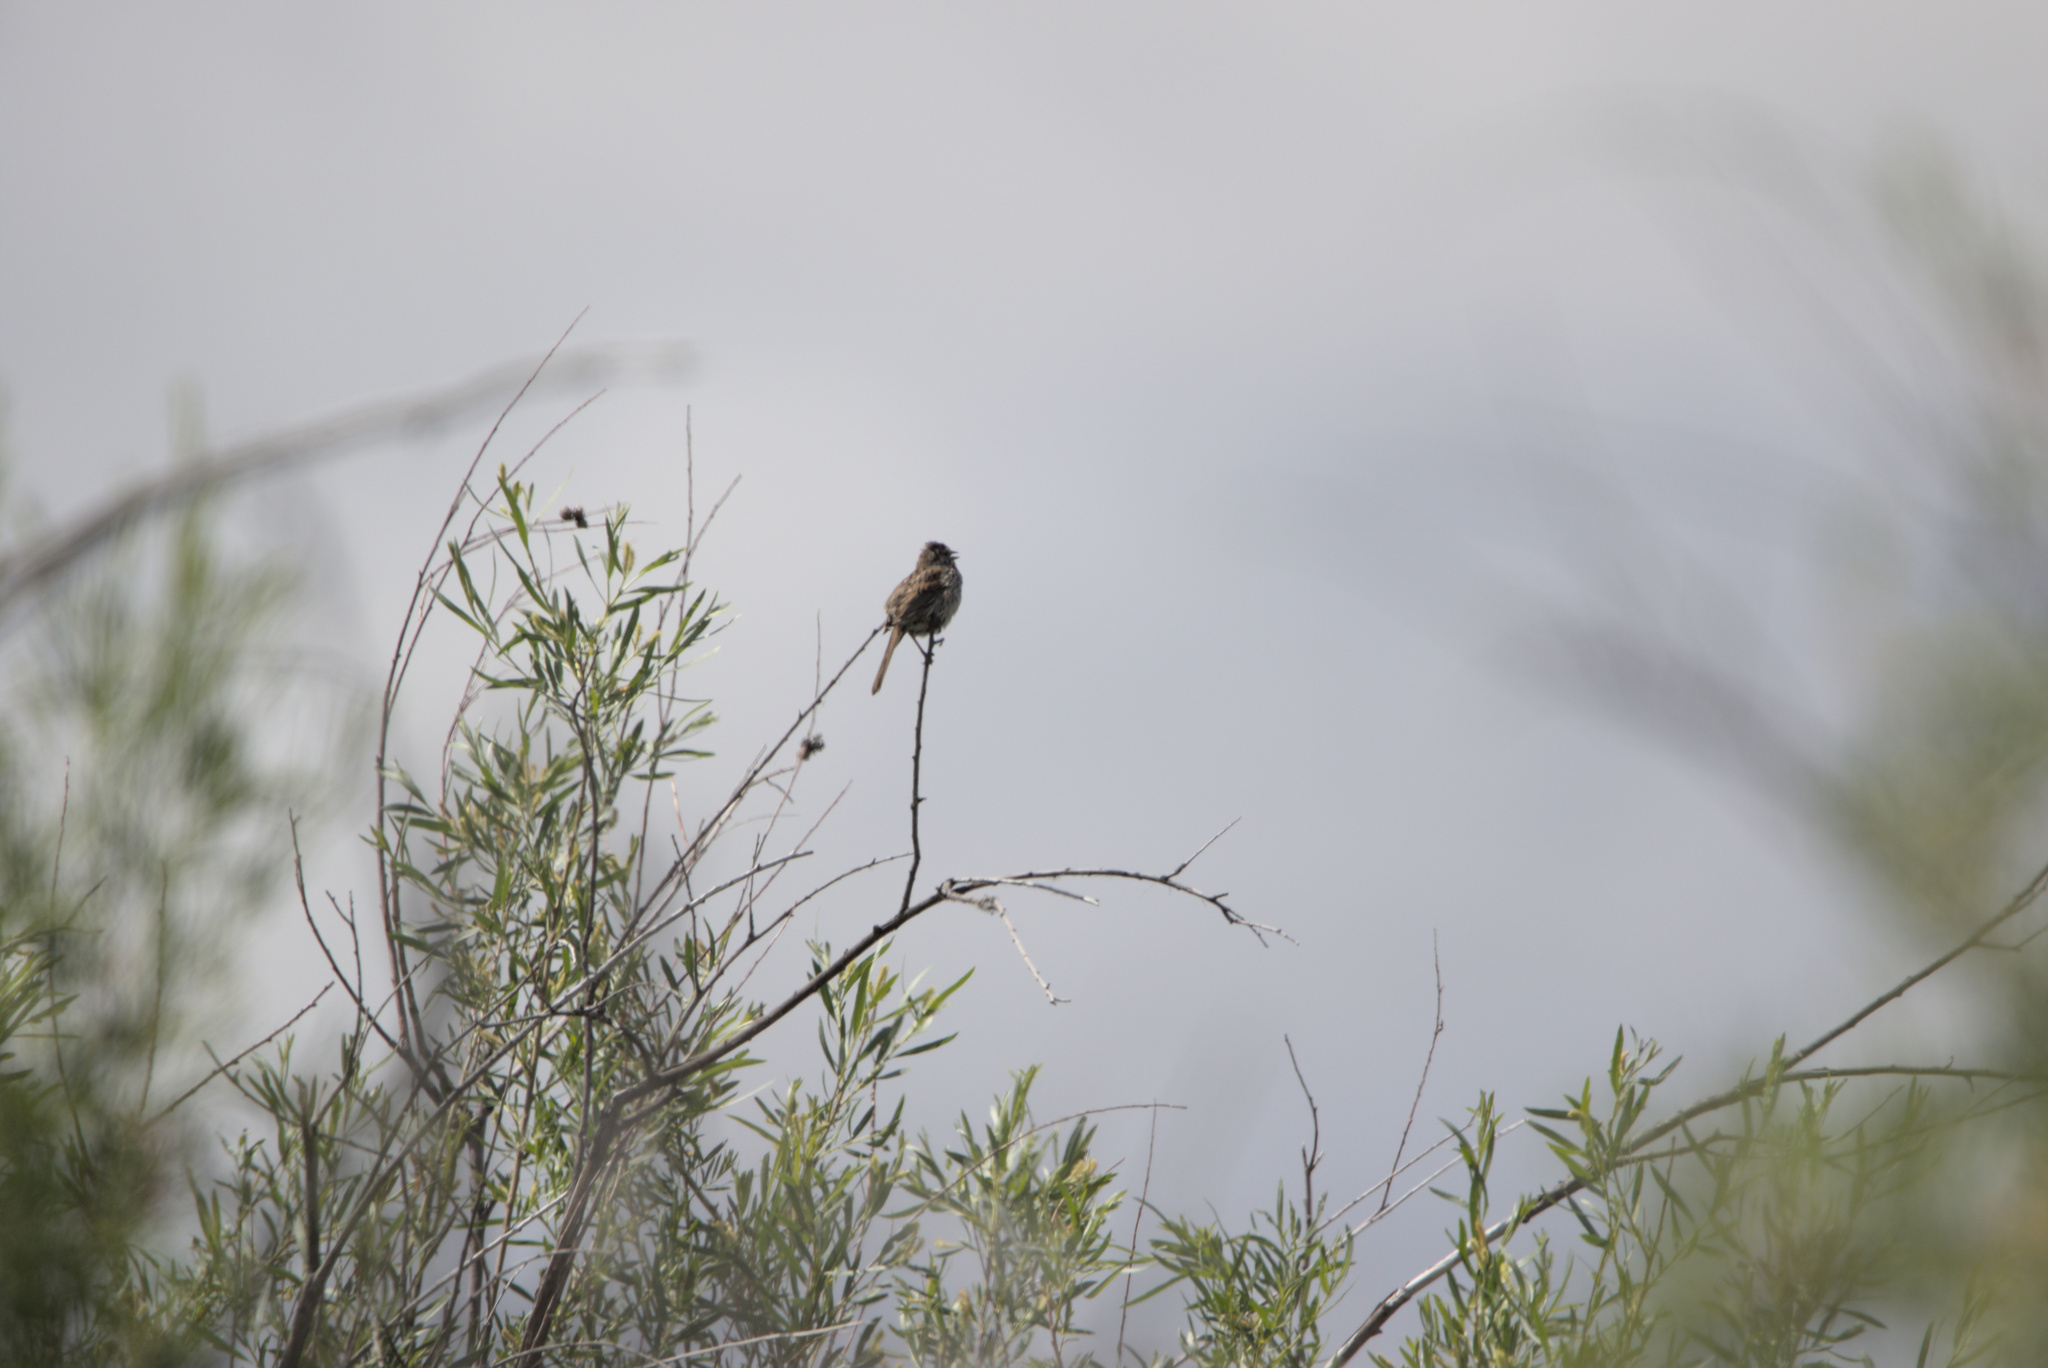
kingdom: Animalia
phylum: Chordata
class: Aves
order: Passeriformes
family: Passerellidae
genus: Melospiza
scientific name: Melospiza melodia
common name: Song sparrow
